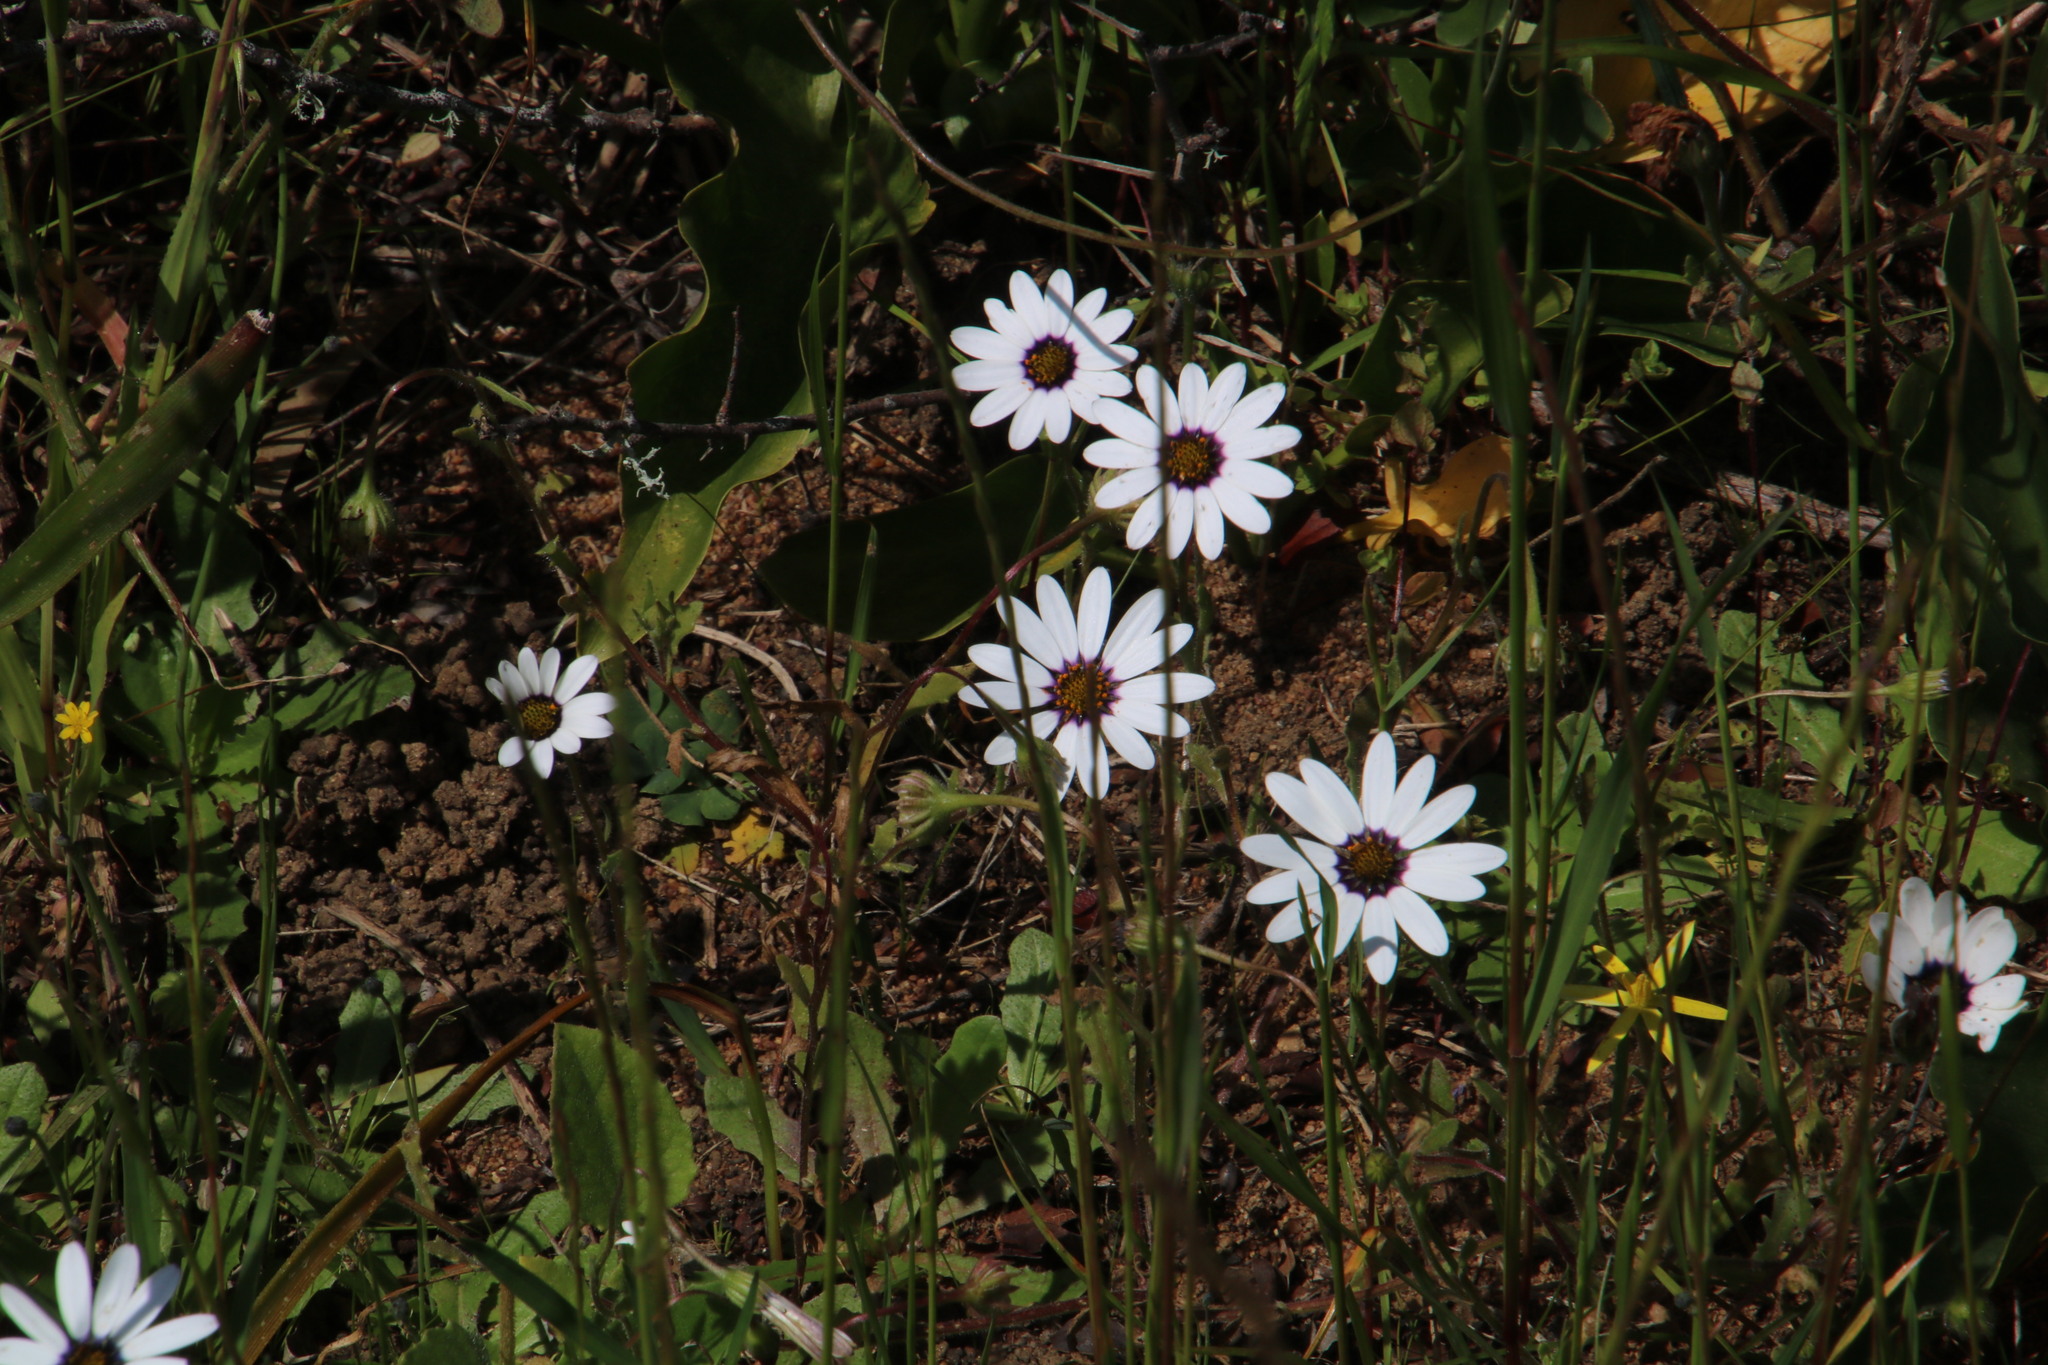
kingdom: Plantae
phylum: Tracheophyta
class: Magnoliopsida
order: Asterales
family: Asteraceae
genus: Dimorphotheca
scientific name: Dimorphotheca pluvialis
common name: Weather prophet
